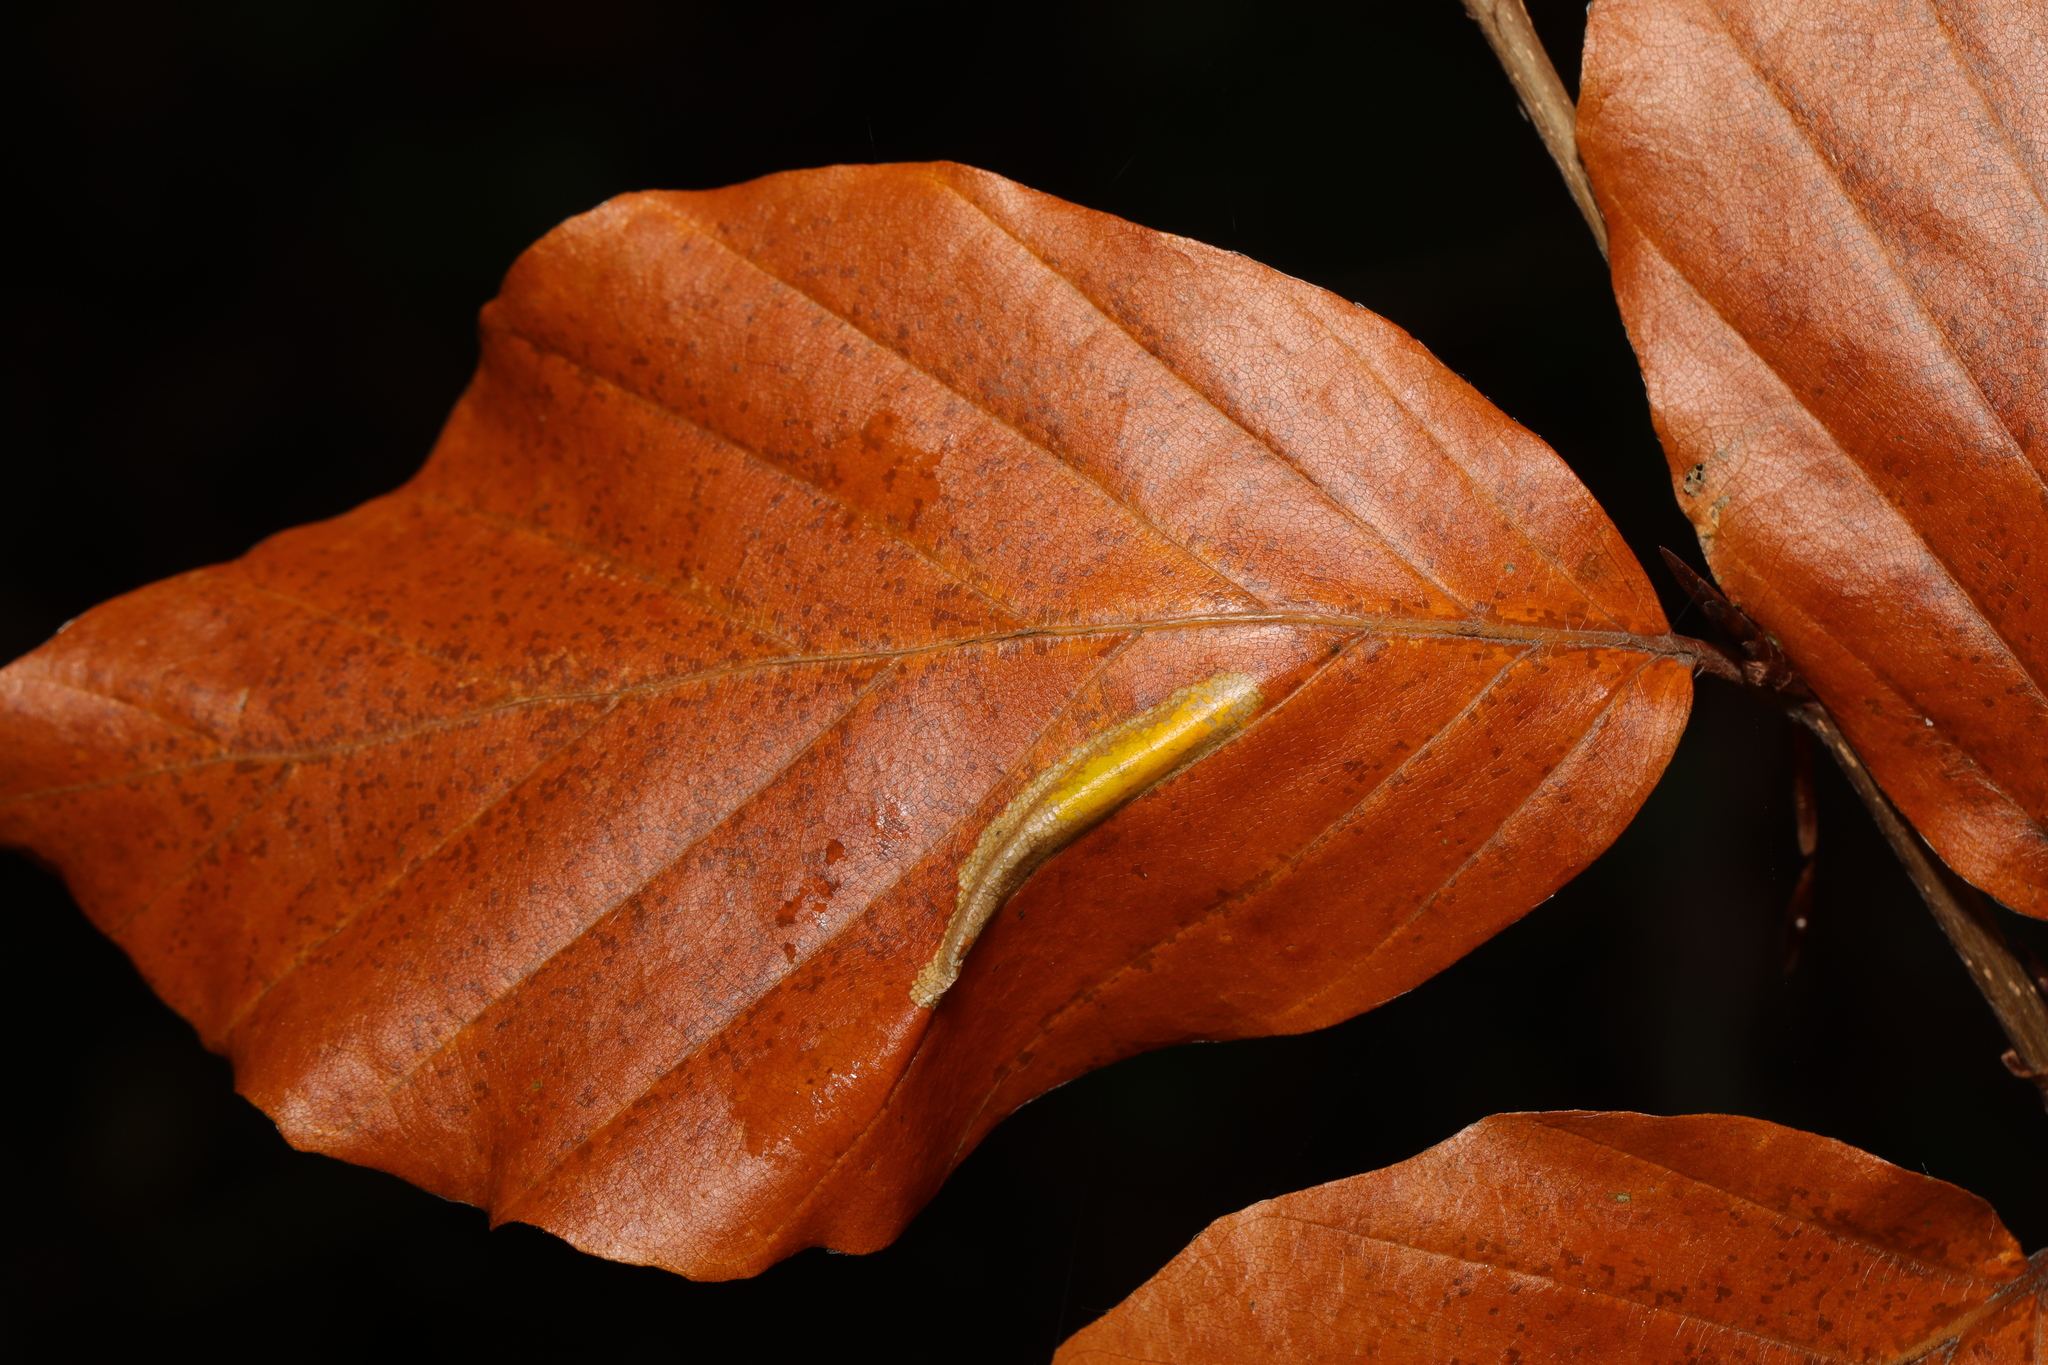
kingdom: Animalia
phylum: Arthropoda
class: Insecta
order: Lepidoptera
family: Gracillariidae
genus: Phyllonorycter
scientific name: Phyllonorycter maestingella
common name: Beech midget
